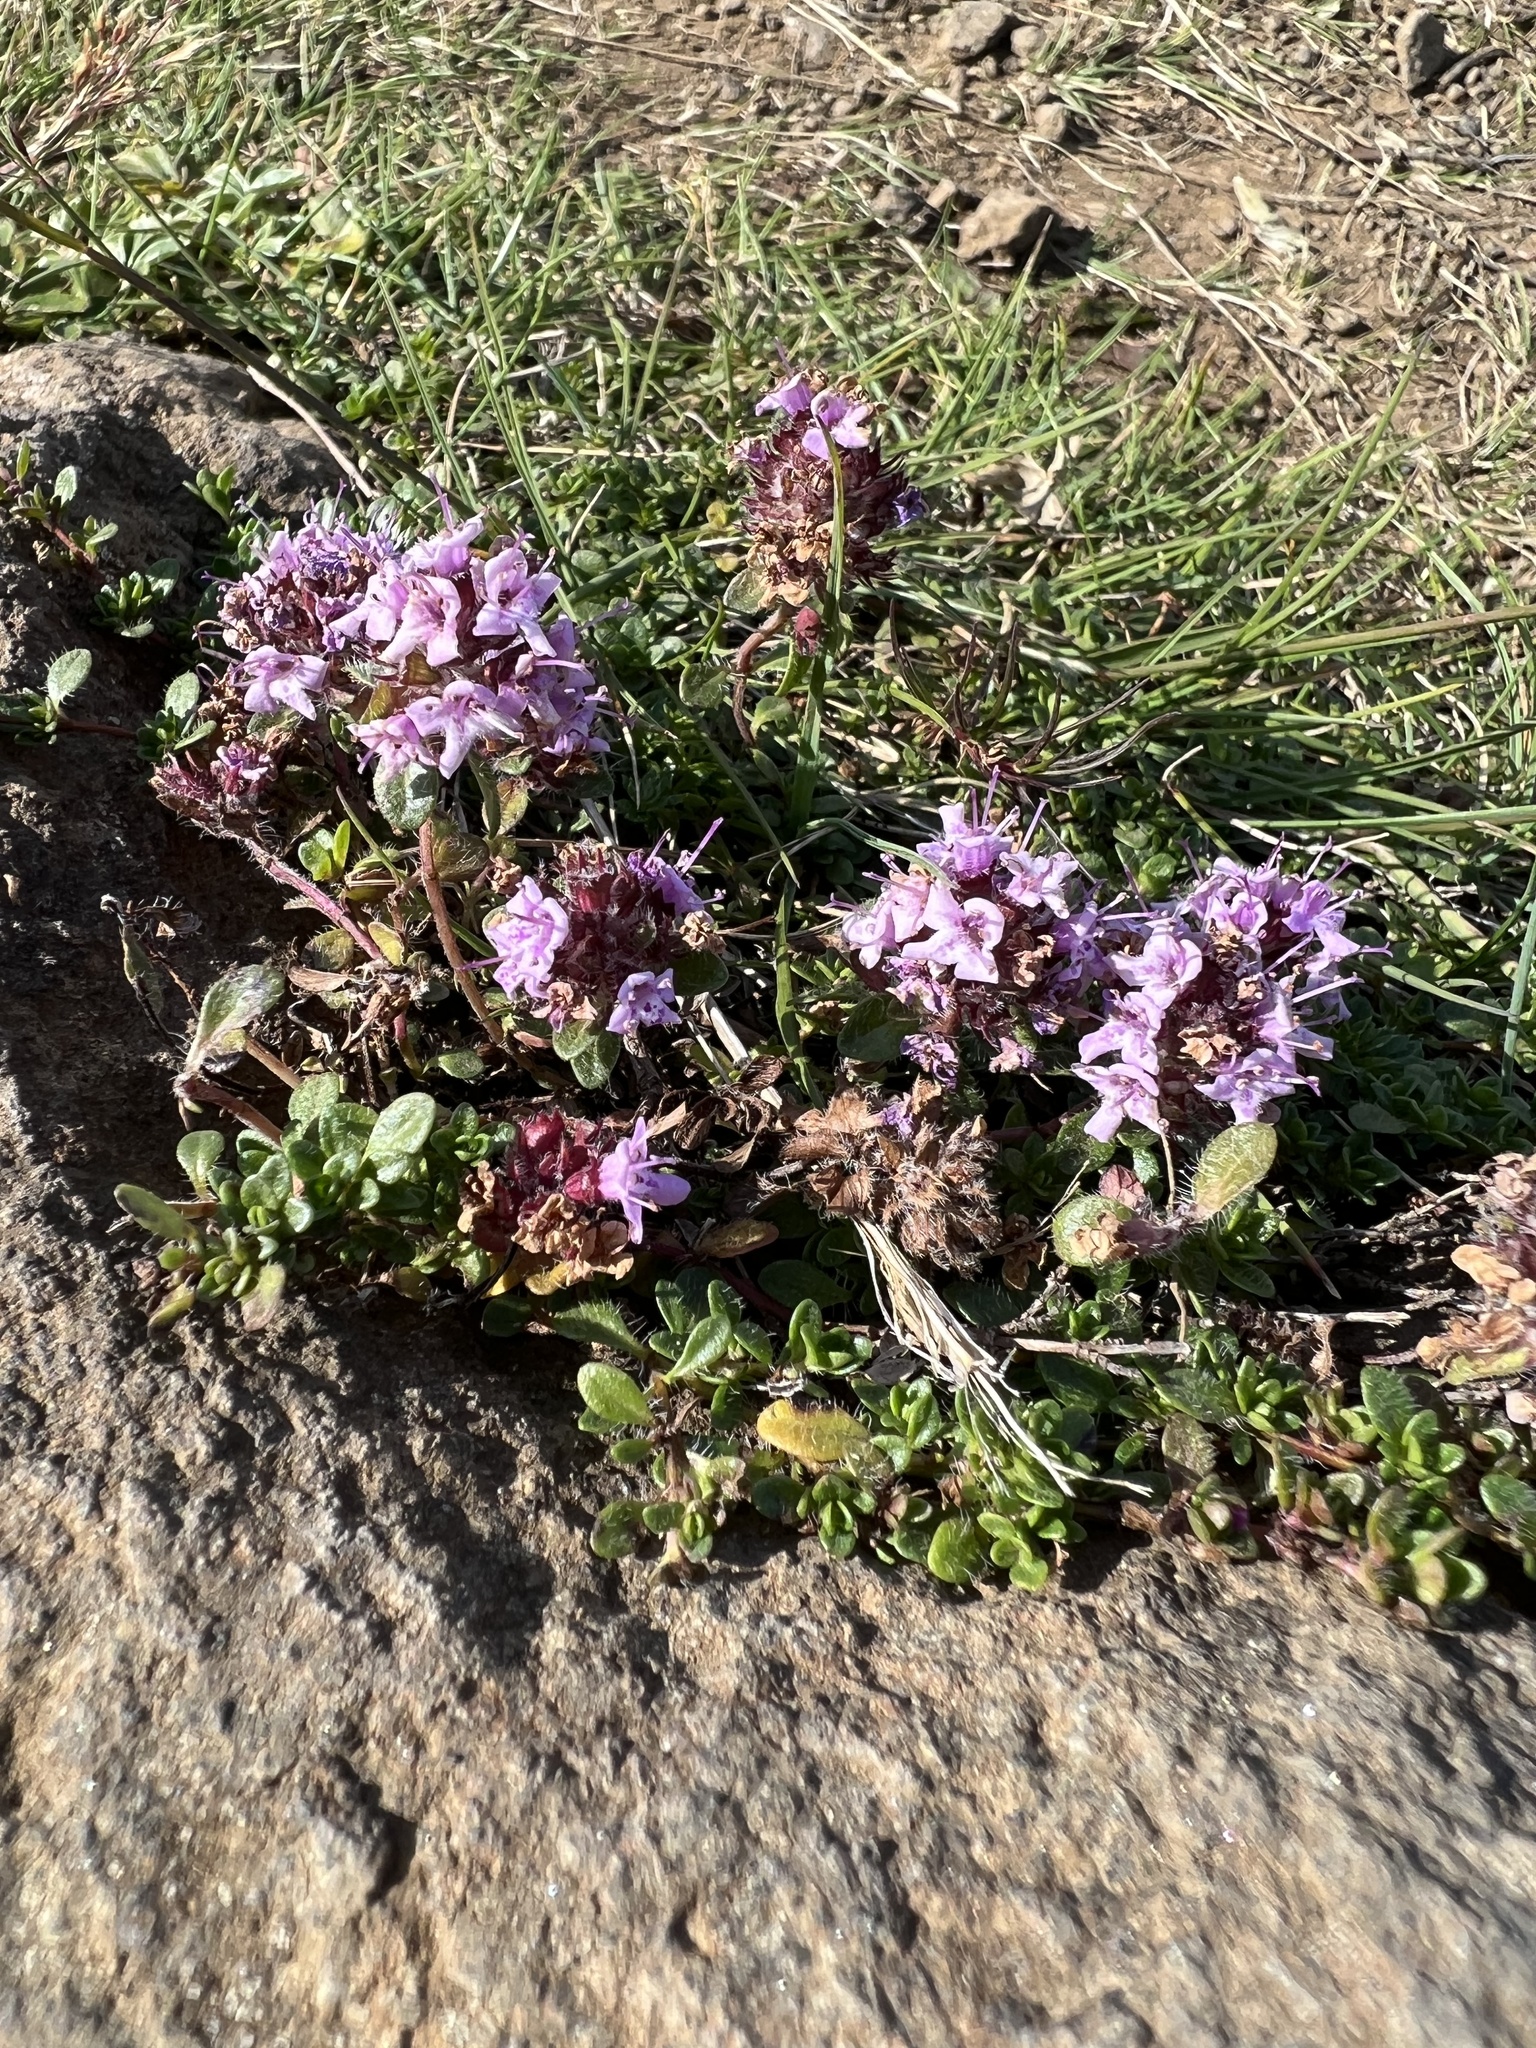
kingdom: Plantae
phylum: Tracheophyta
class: Magnoliopsida
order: Lamiales
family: Lamiaceae
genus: Thymus
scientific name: Thymus praecox
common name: Wild thyme
